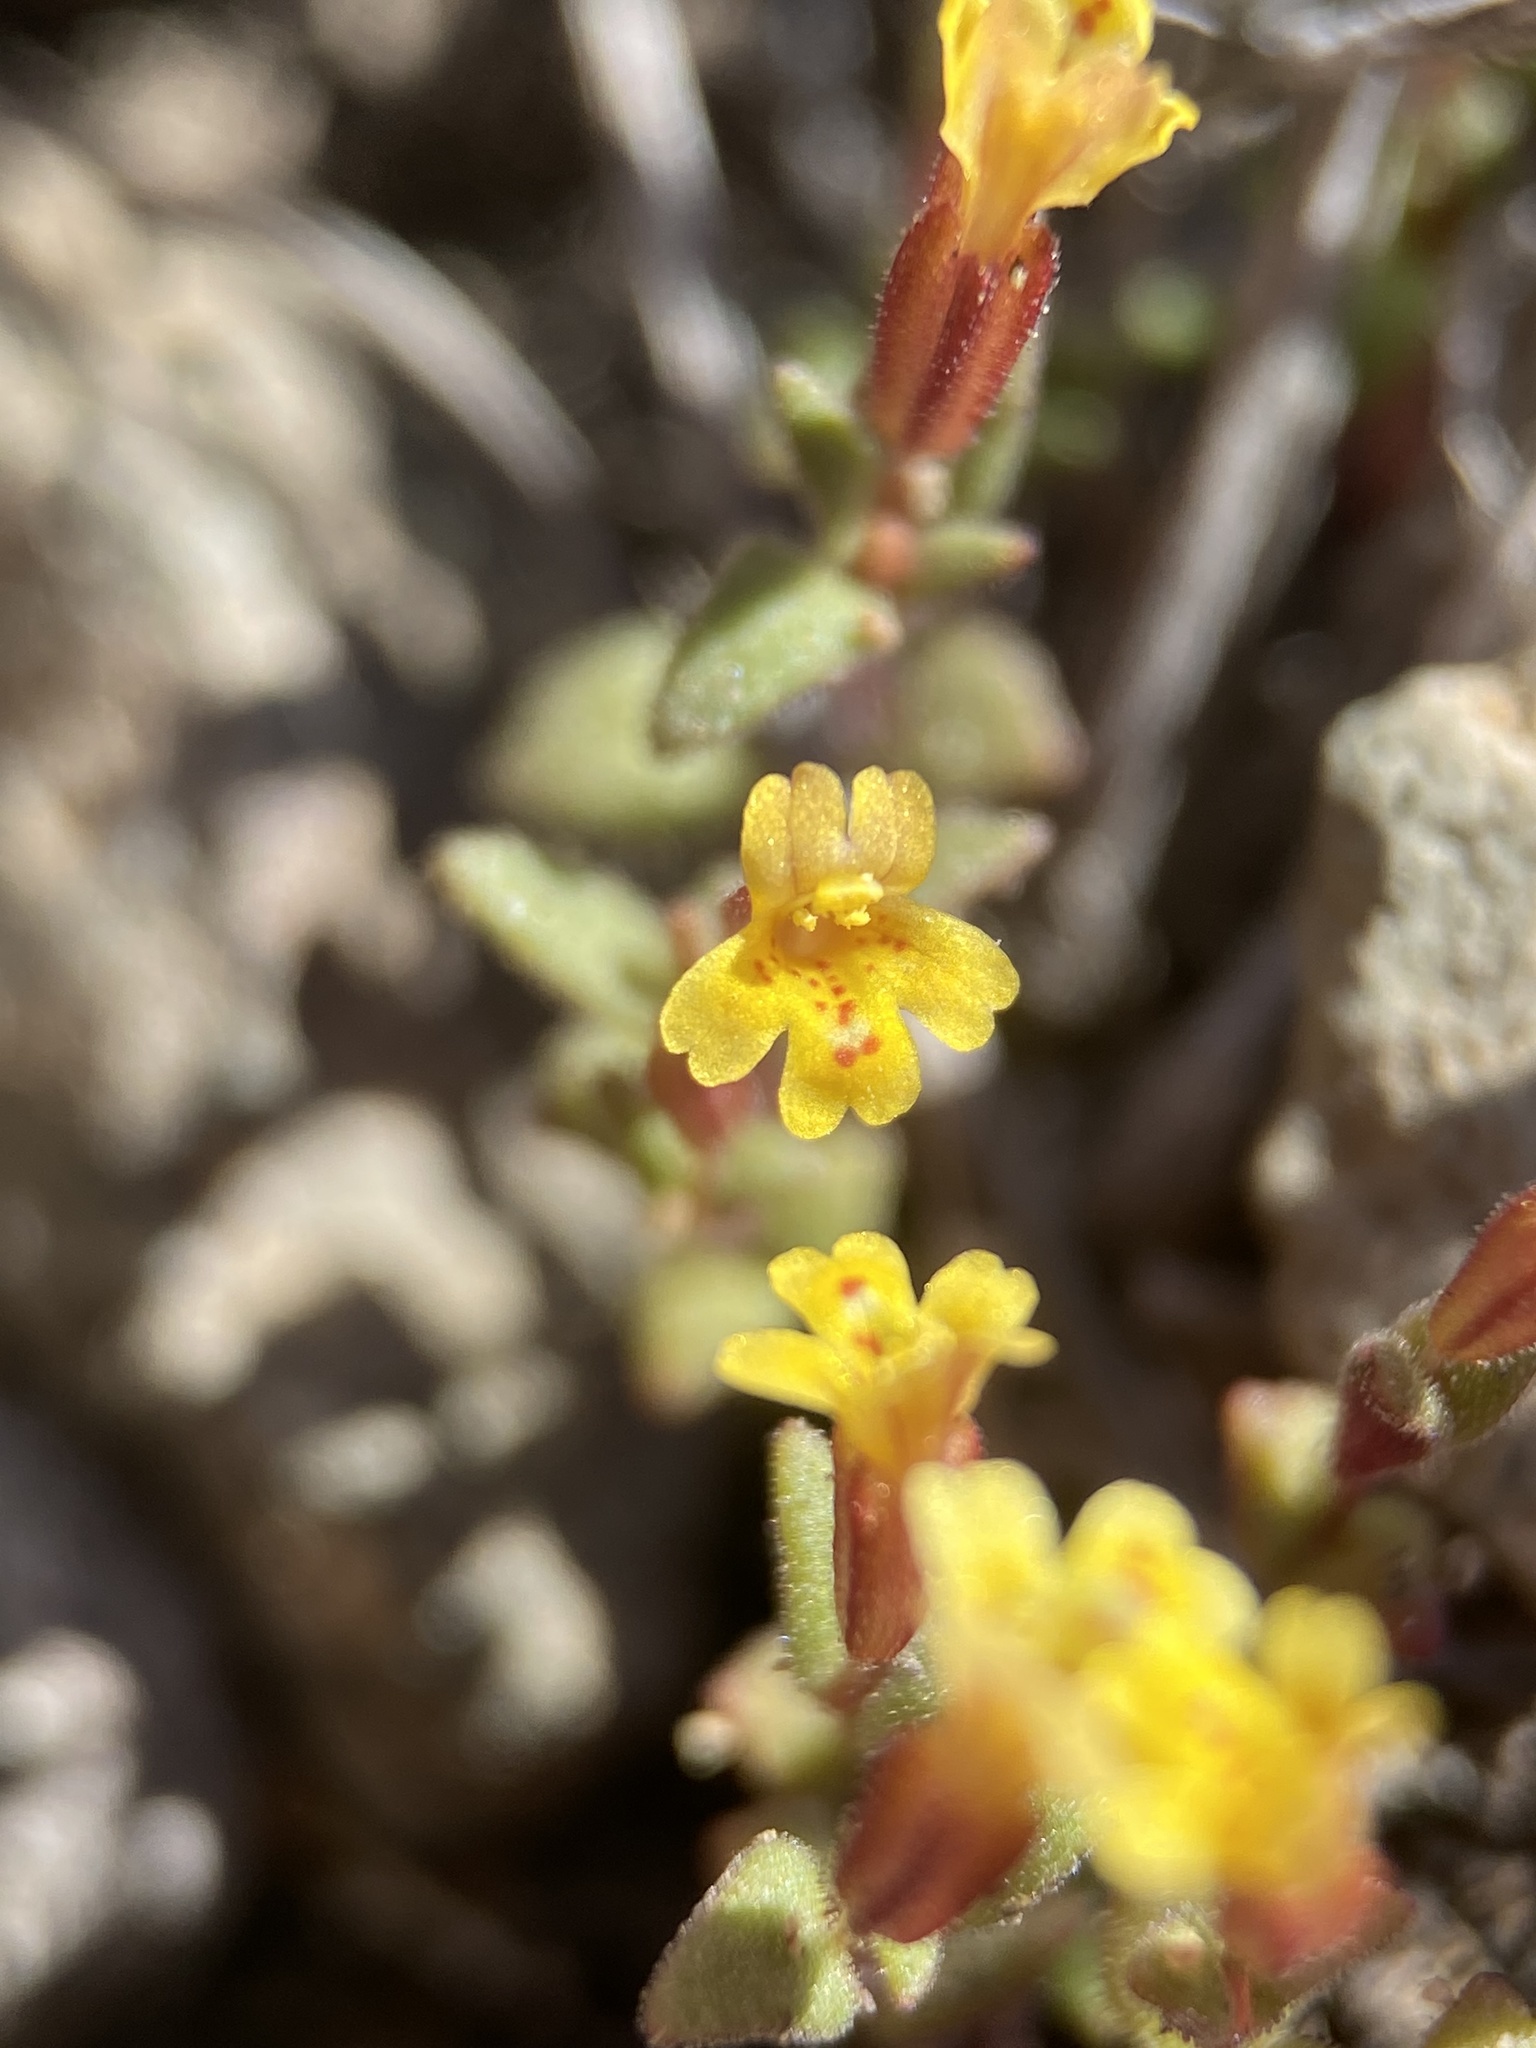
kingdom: Plantae
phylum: Tracheophyta
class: Magnoliopsida
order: Lamiales
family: Phrymaceae
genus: Erythranthe
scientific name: Erythranthe suksdorfii
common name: Suksdorf's monkeyflower
